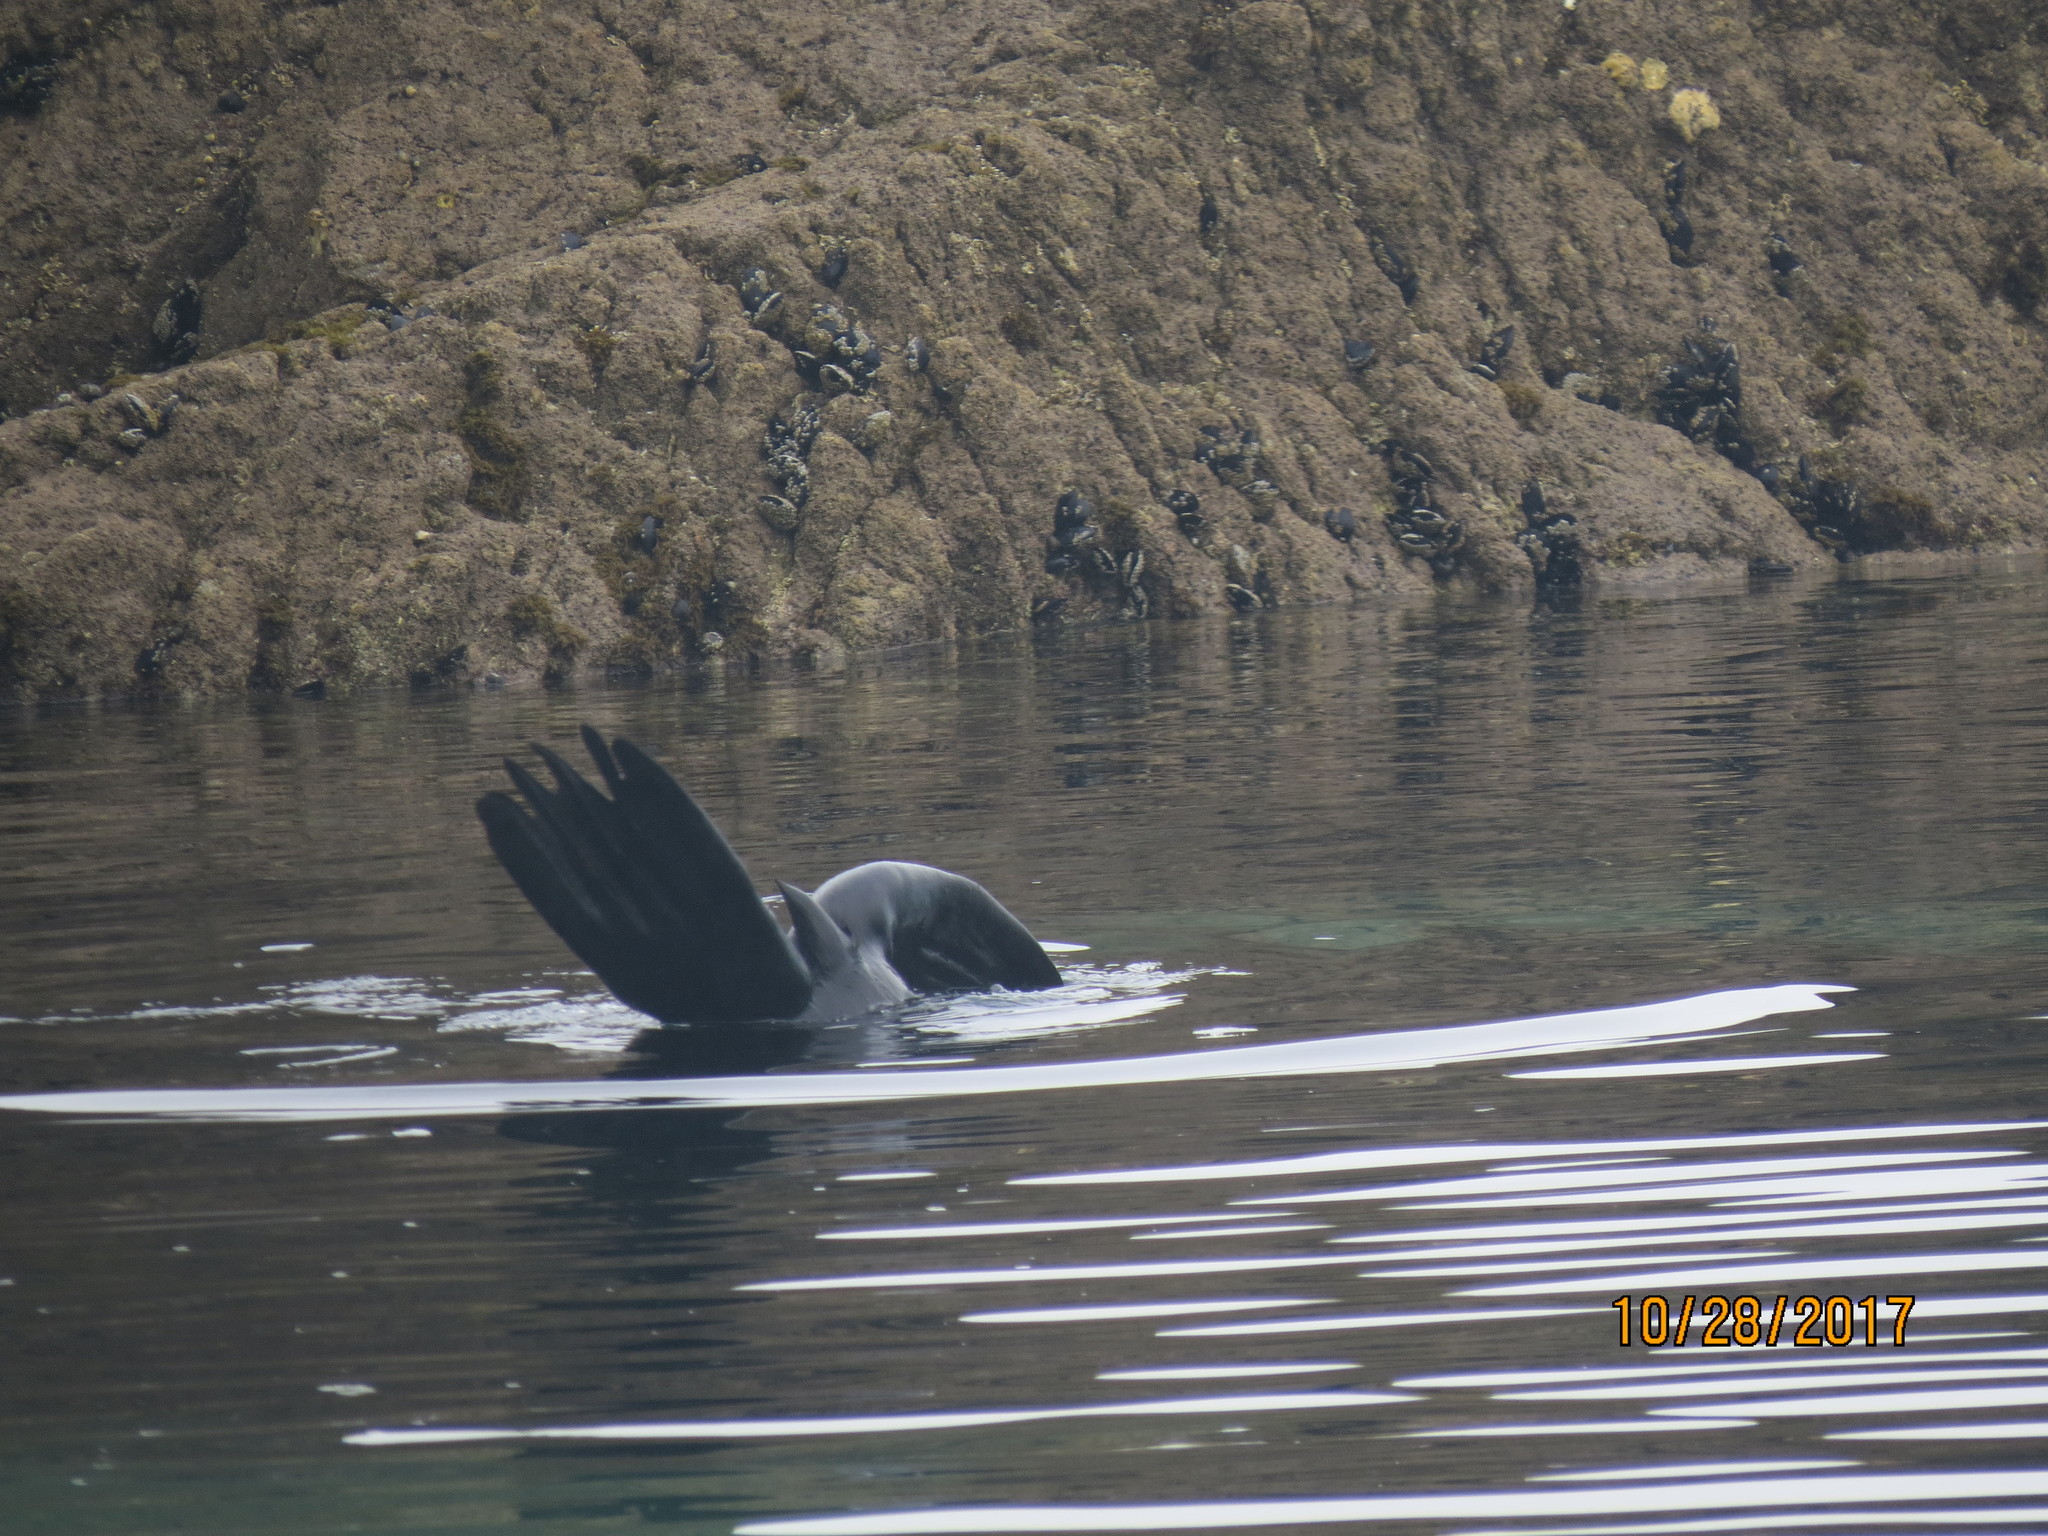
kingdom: Animalia
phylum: Chordata
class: Mammalia
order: Carnivora
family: Otariidae
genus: Arctocephalus
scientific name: Arctocephalus forsteri
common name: New zealand fur seal
